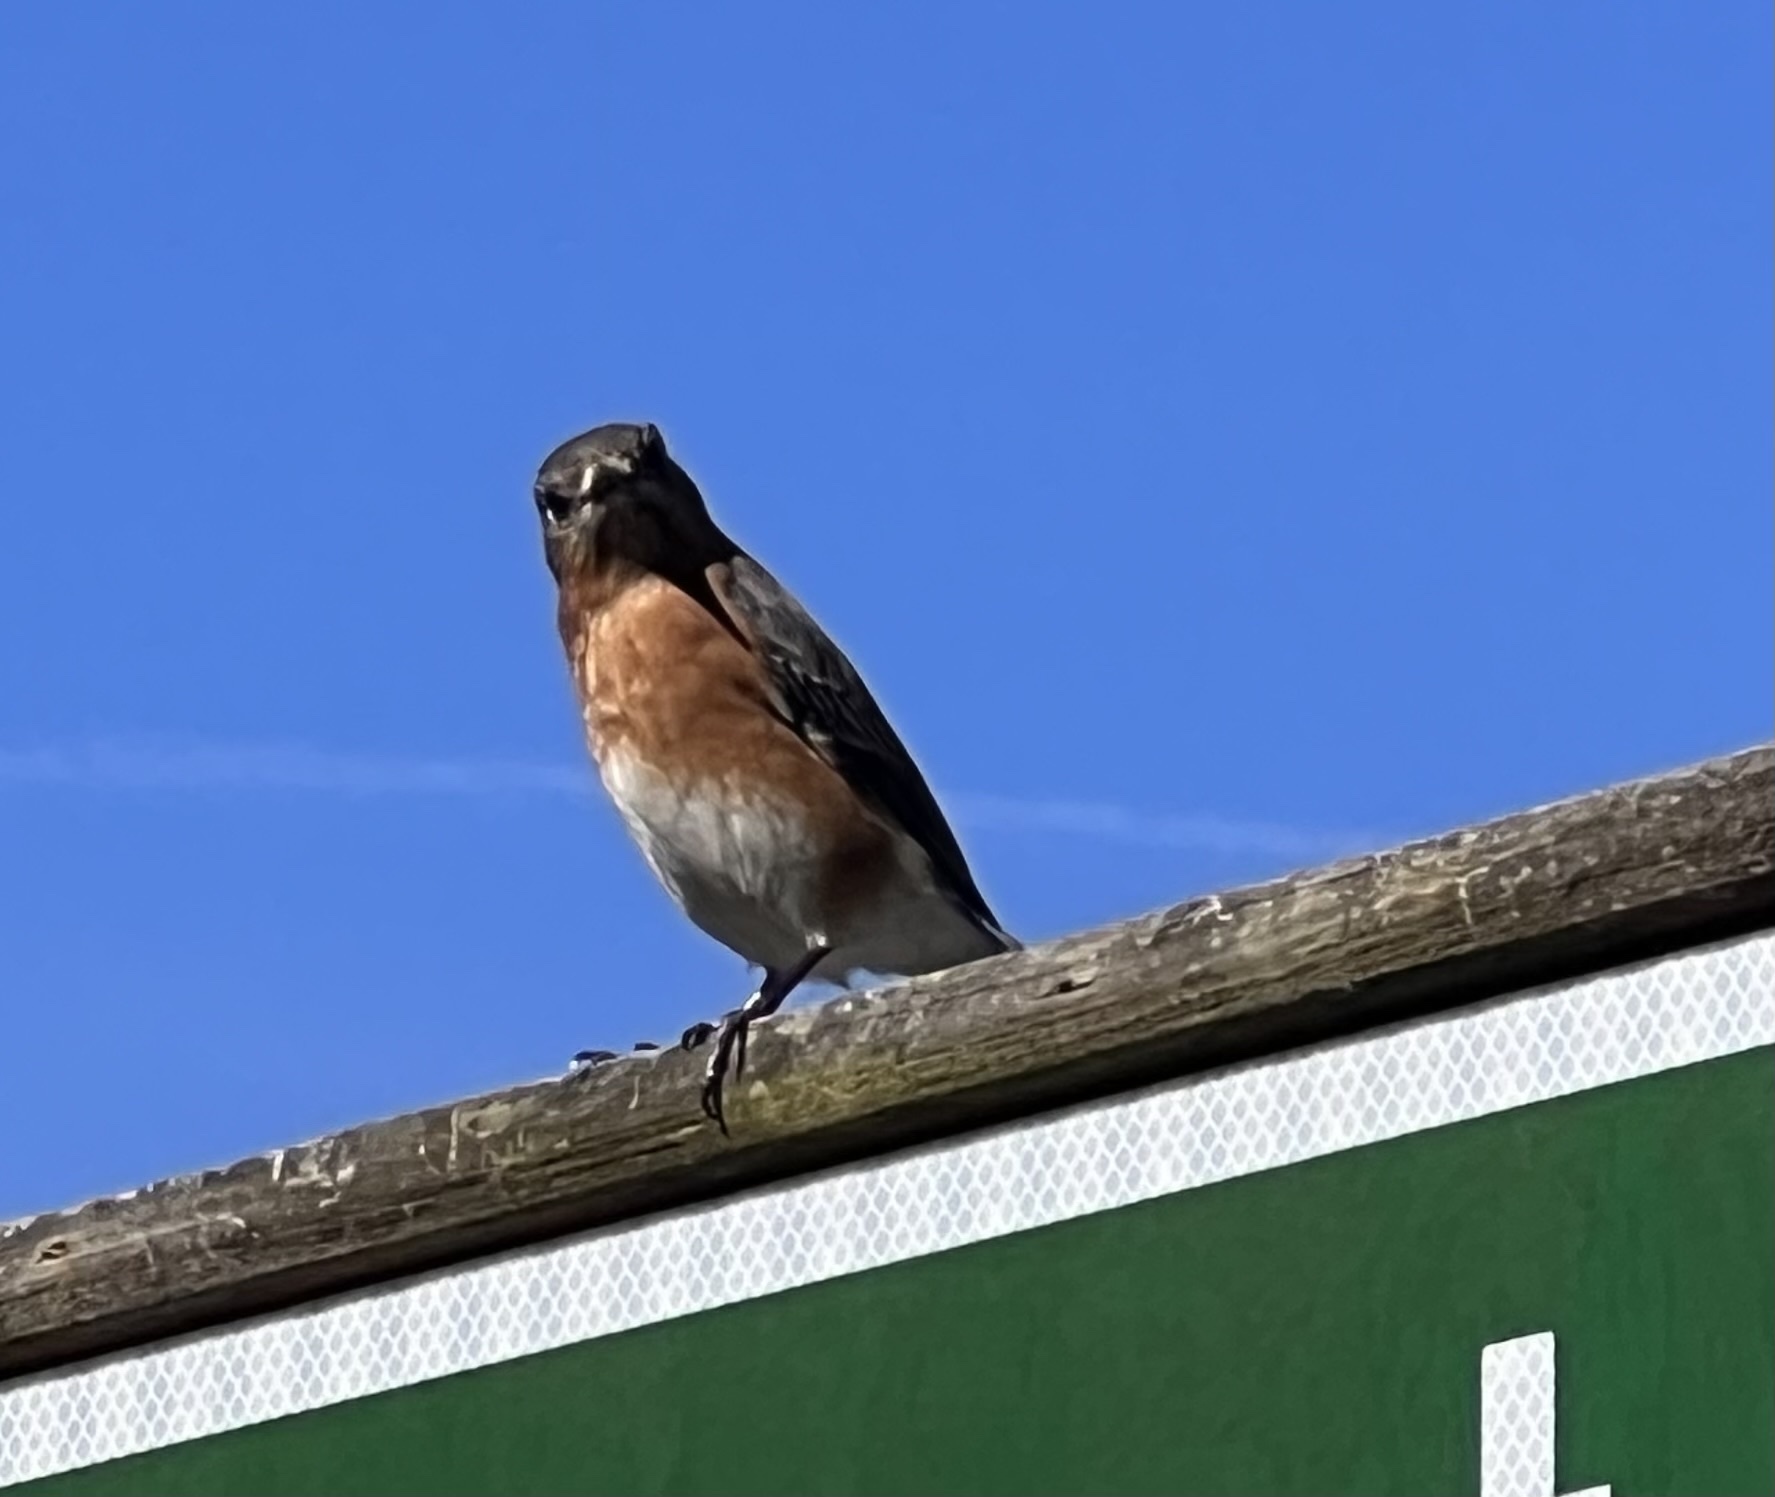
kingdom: Animalia
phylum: Chordata
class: Aves
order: Passeriformes
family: Turdidae
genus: Sialia
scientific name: Sialia sialis
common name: Eastern bluebird
